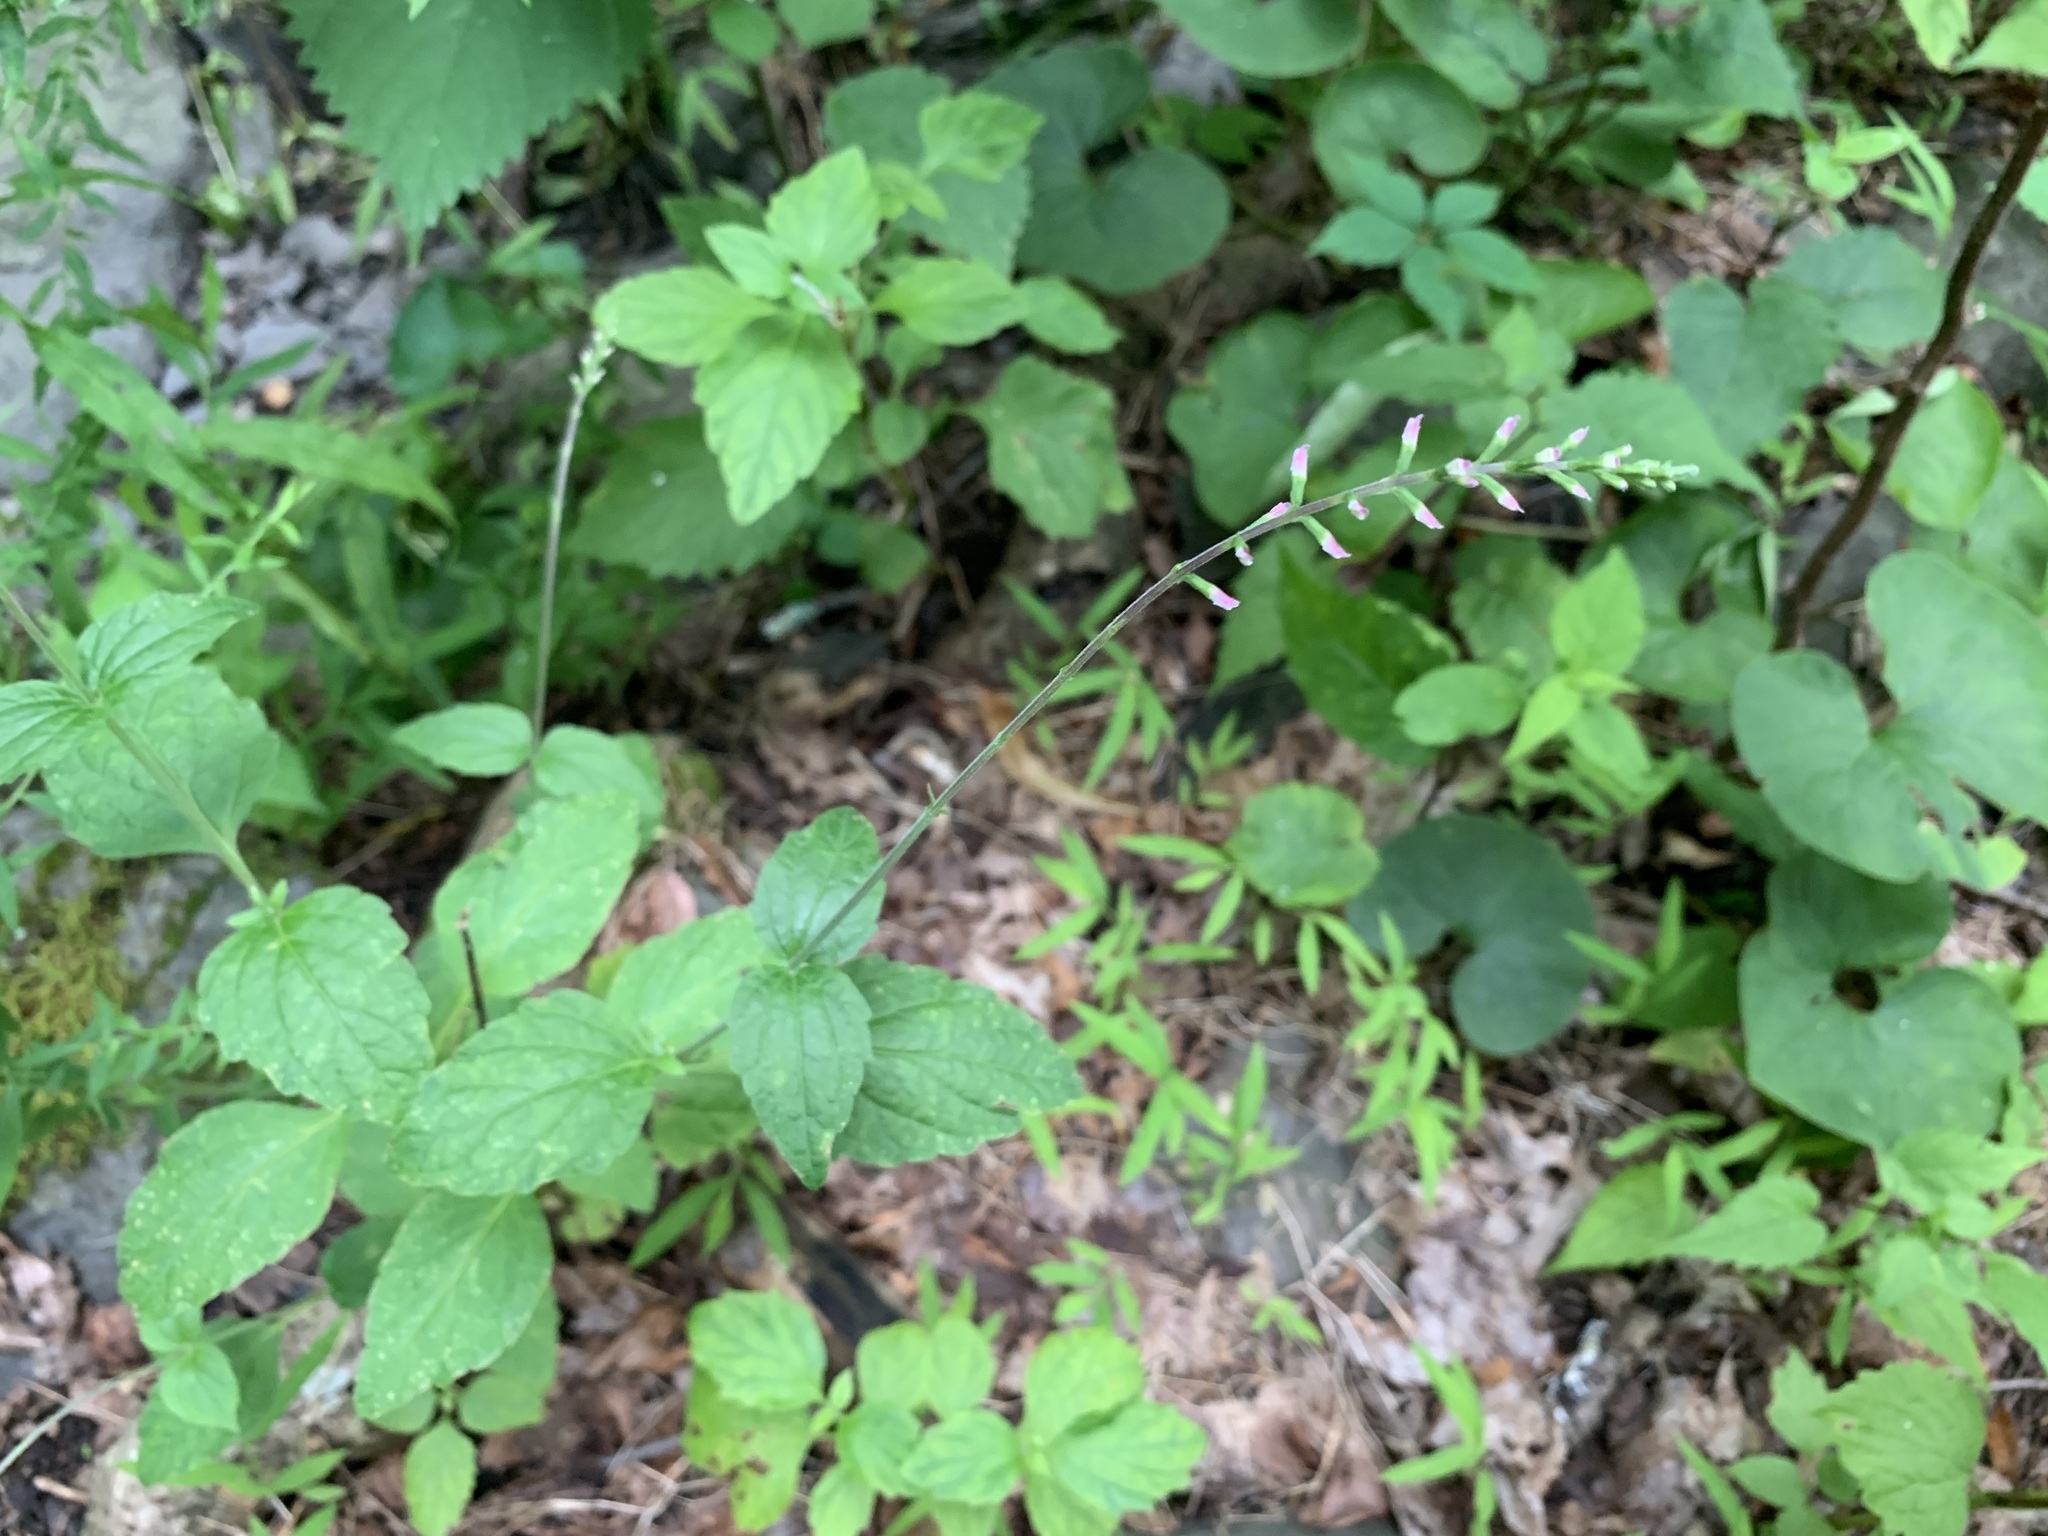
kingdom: Plantae
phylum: Tracheophyta
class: Magnoliopsida
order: Lamiales
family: Phrymaceae
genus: Phryma
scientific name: Phryma leptostachya
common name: American lopseed
